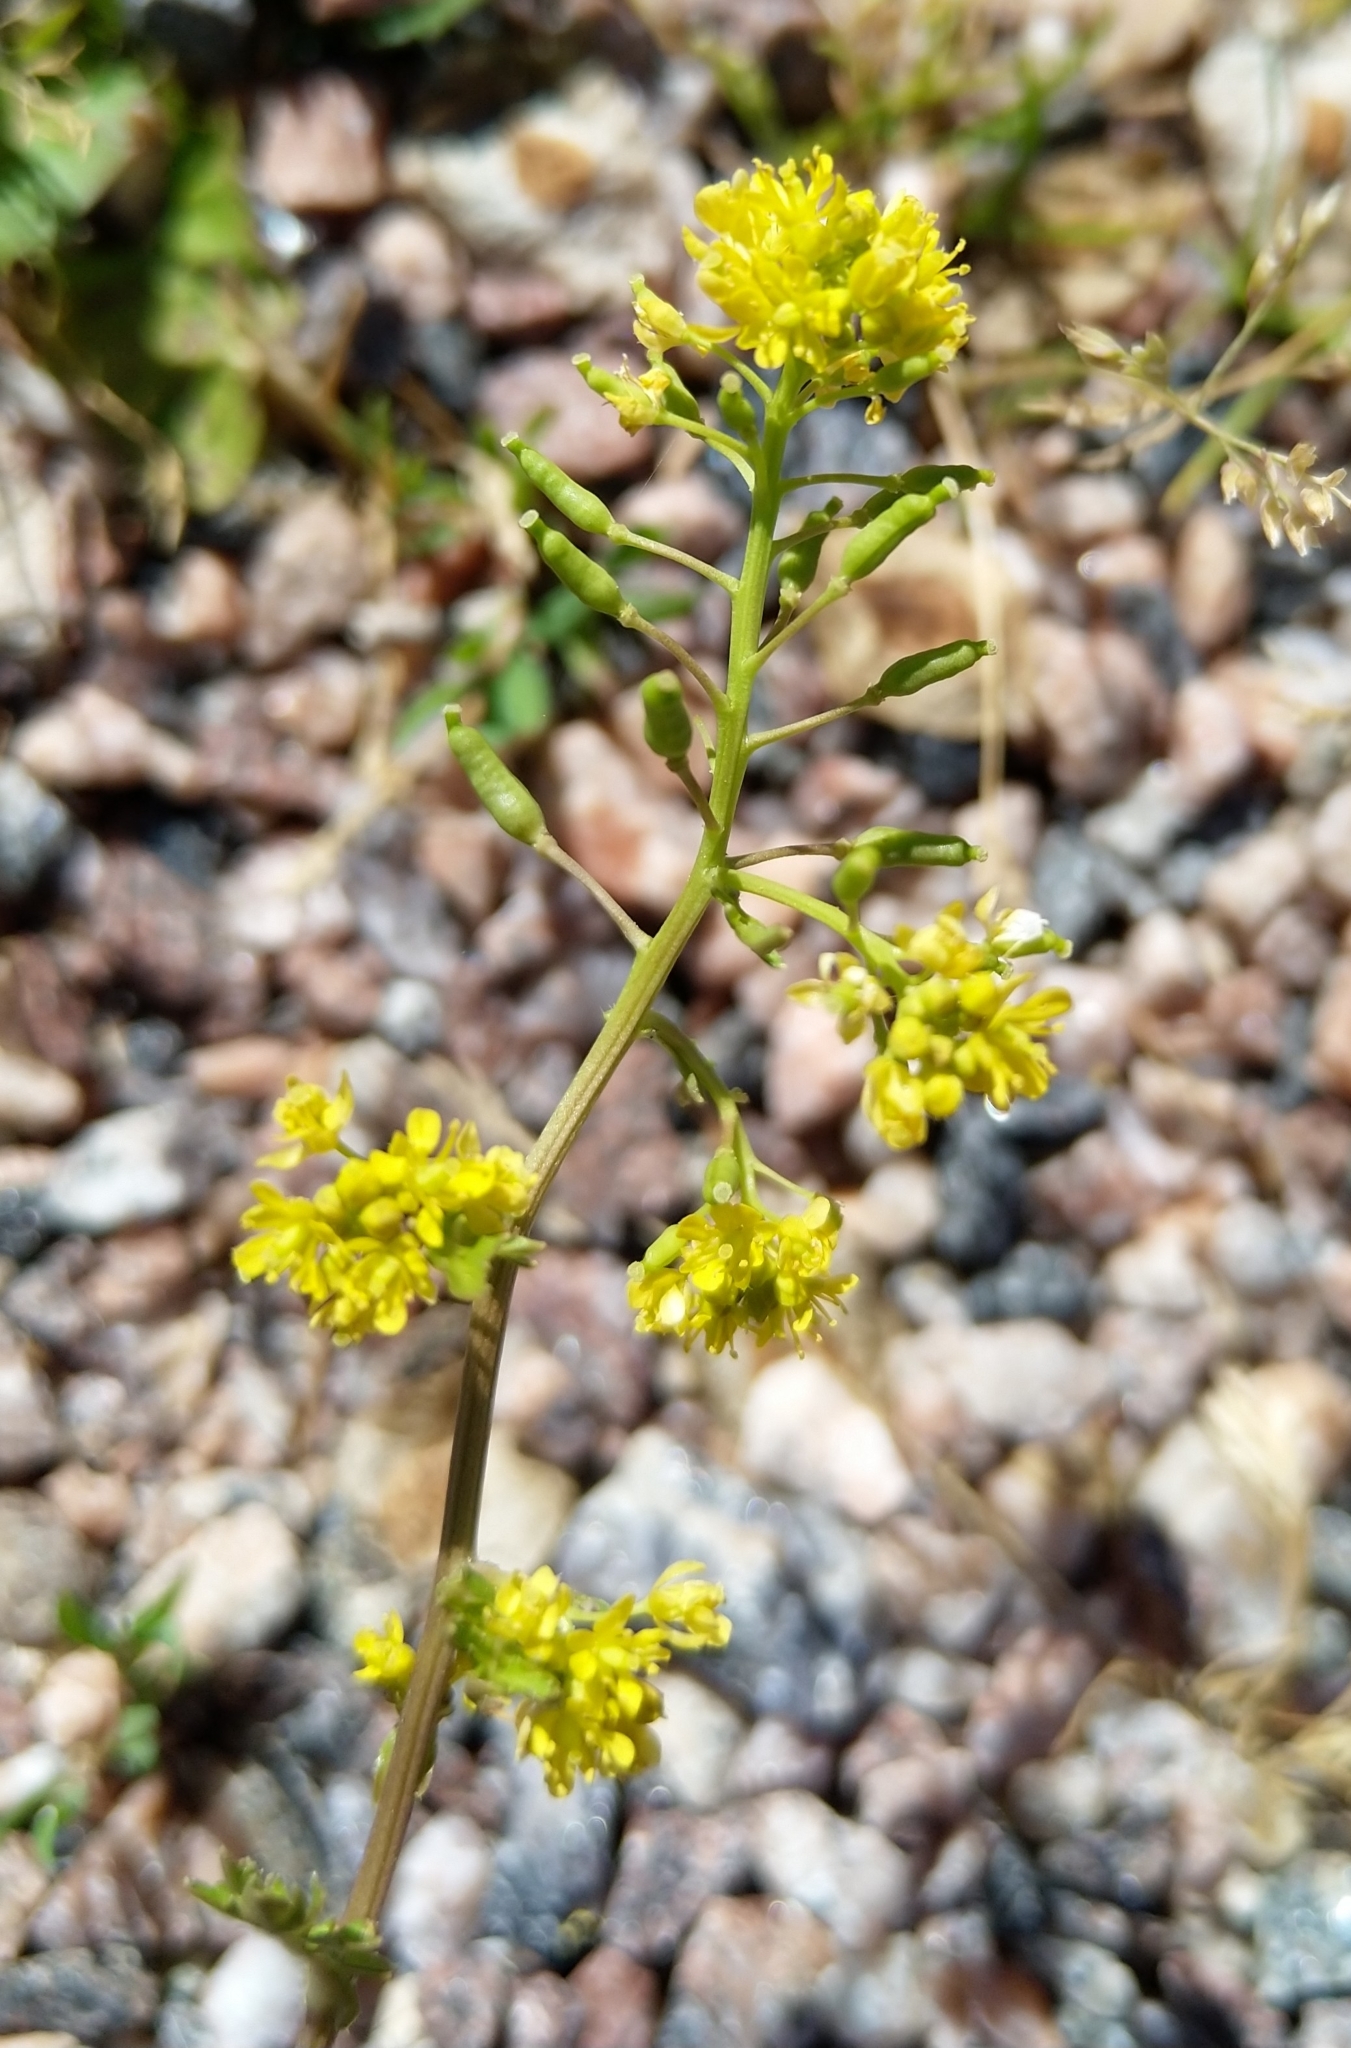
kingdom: Plantae
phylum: Tracheophyta
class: Magnoliopsida
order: Brassicales
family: Brassicaceae
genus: Rorippa
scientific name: Rorippa palustris
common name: Marsh yellow-cress
